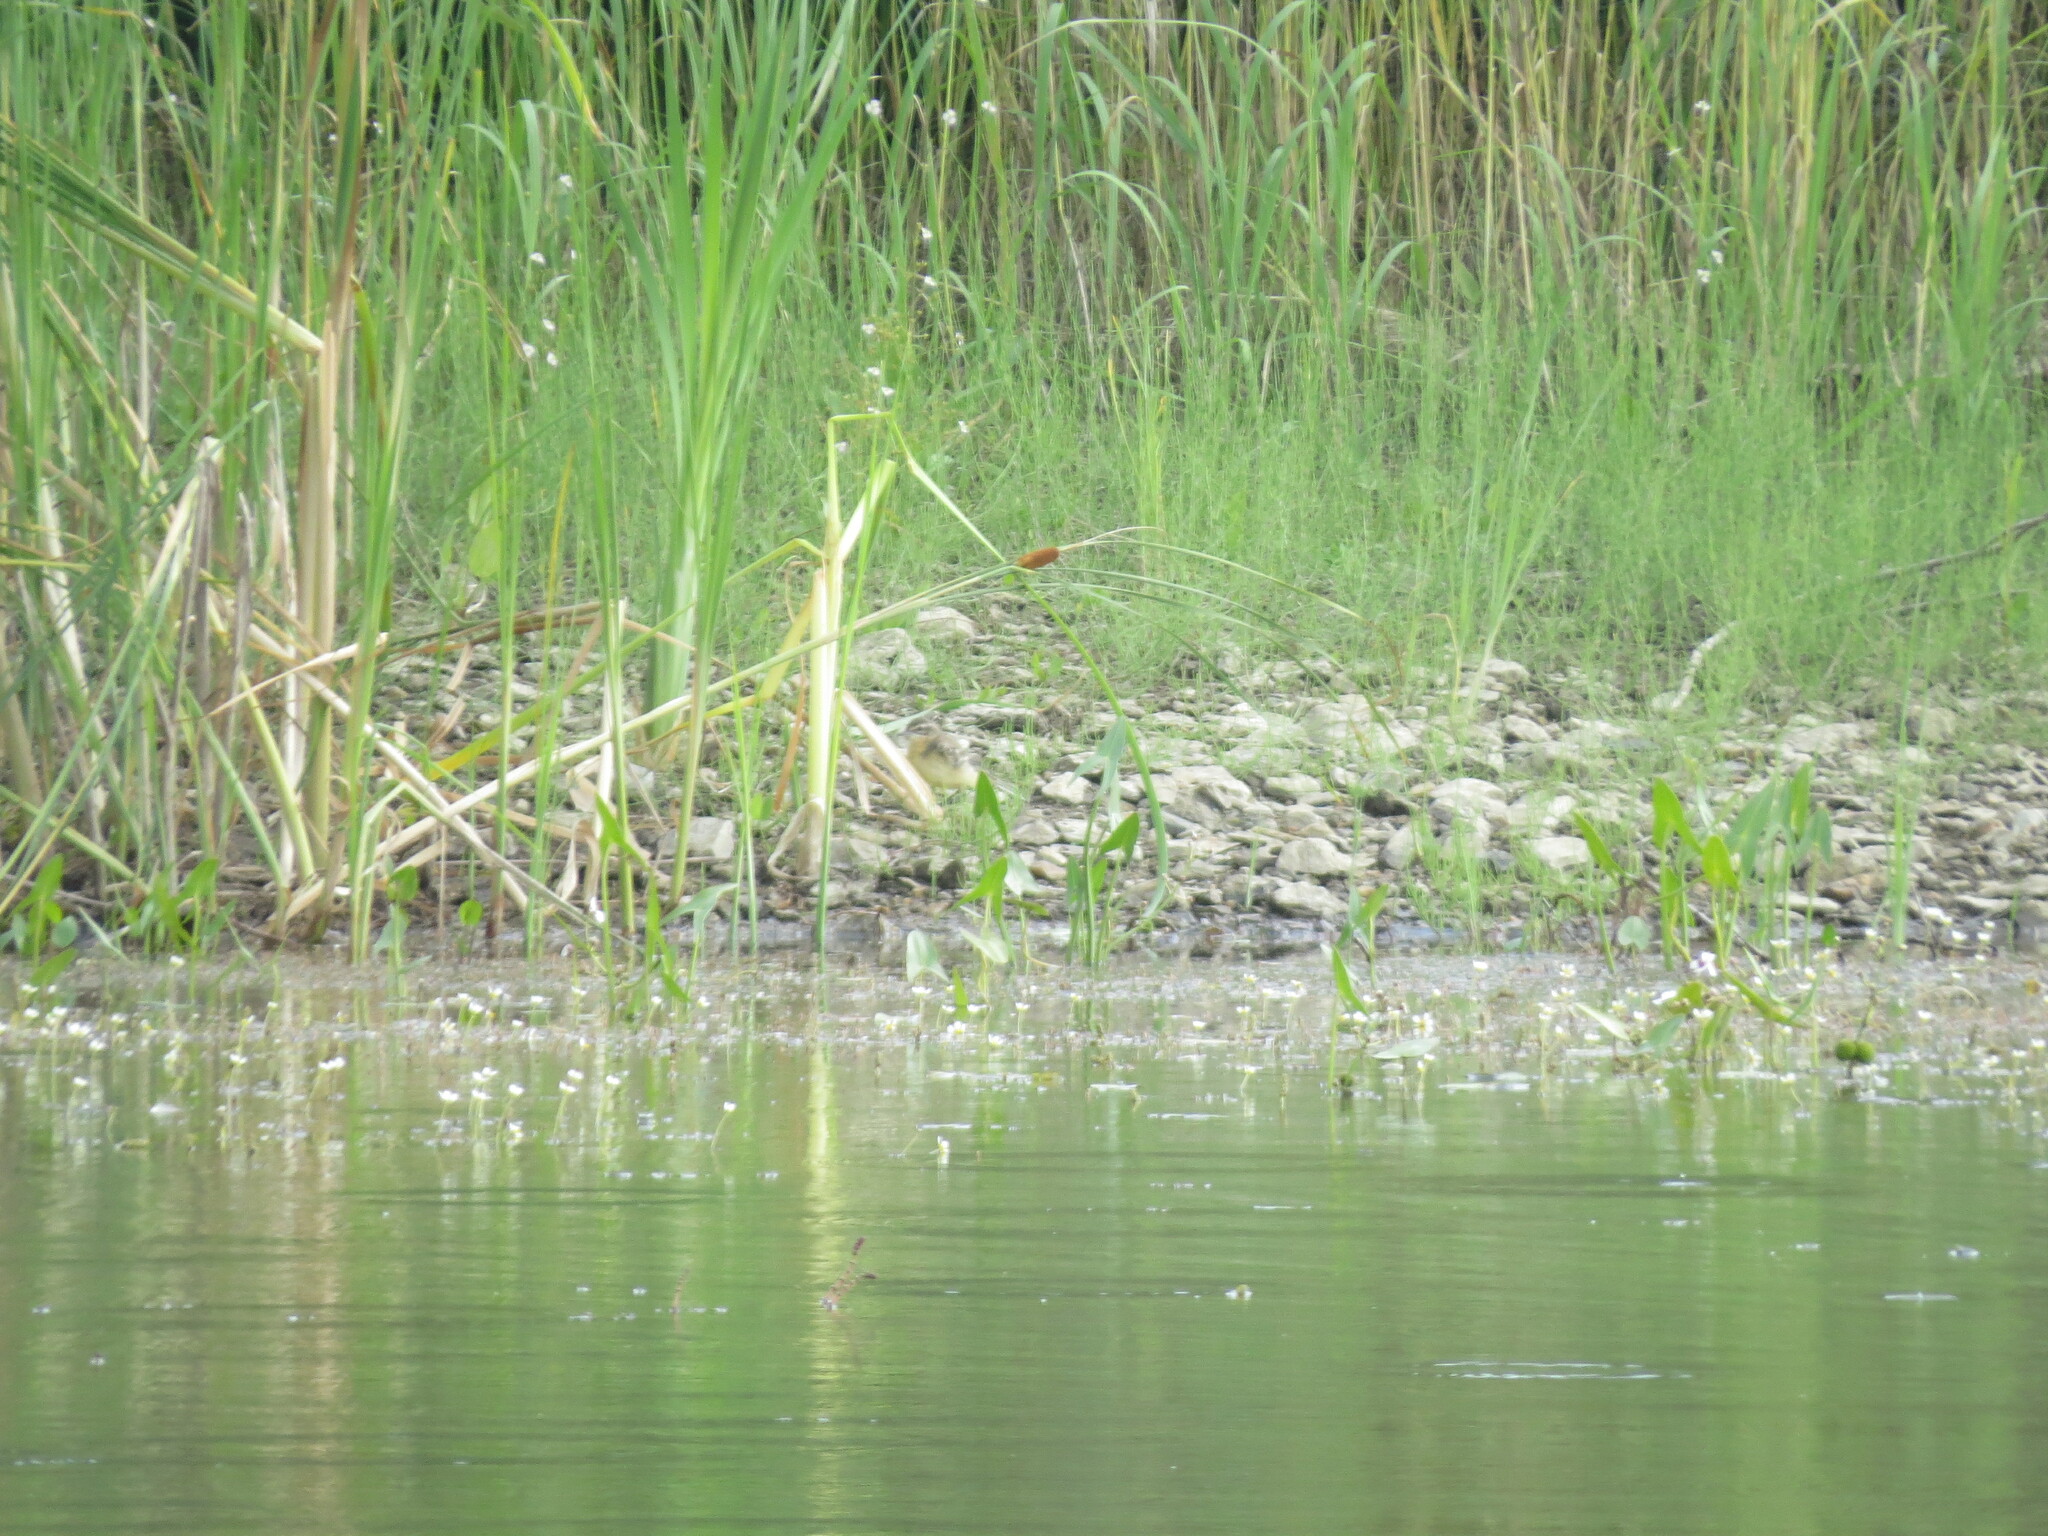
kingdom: Animalia
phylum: Chordata
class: Aves
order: Passeriformes
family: Motacillidae
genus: Motacilla
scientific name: Motacilla flava
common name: Western yellow wagtail
